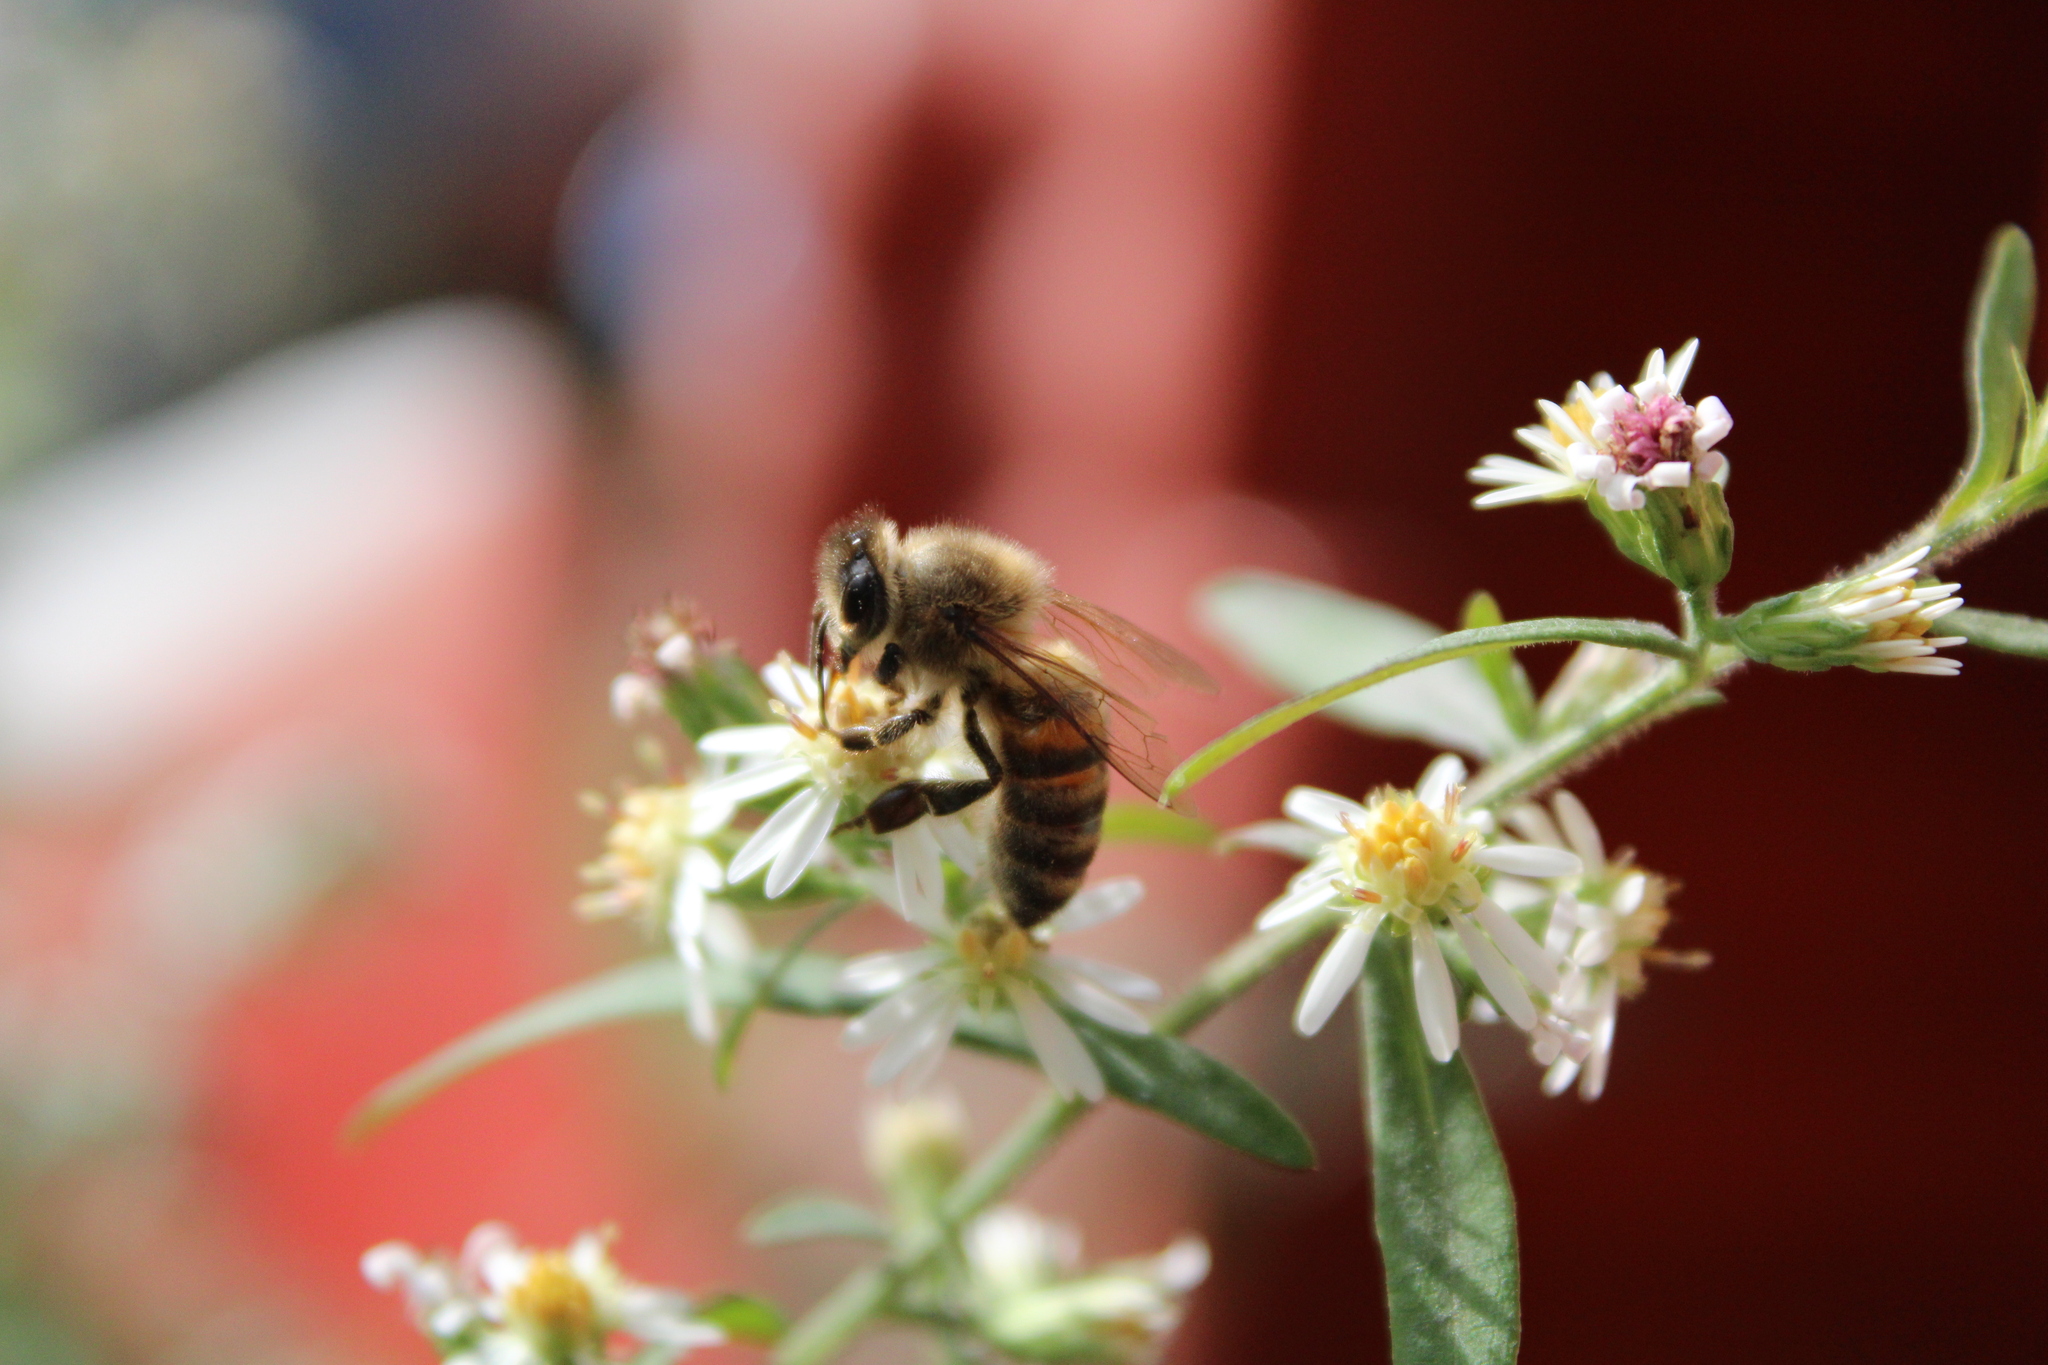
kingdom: Animalia
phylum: Arthropoda
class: Insecta
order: Hymenoptera
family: Apidae
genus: Apis
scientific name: Apis mellifera
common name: Honey bee
